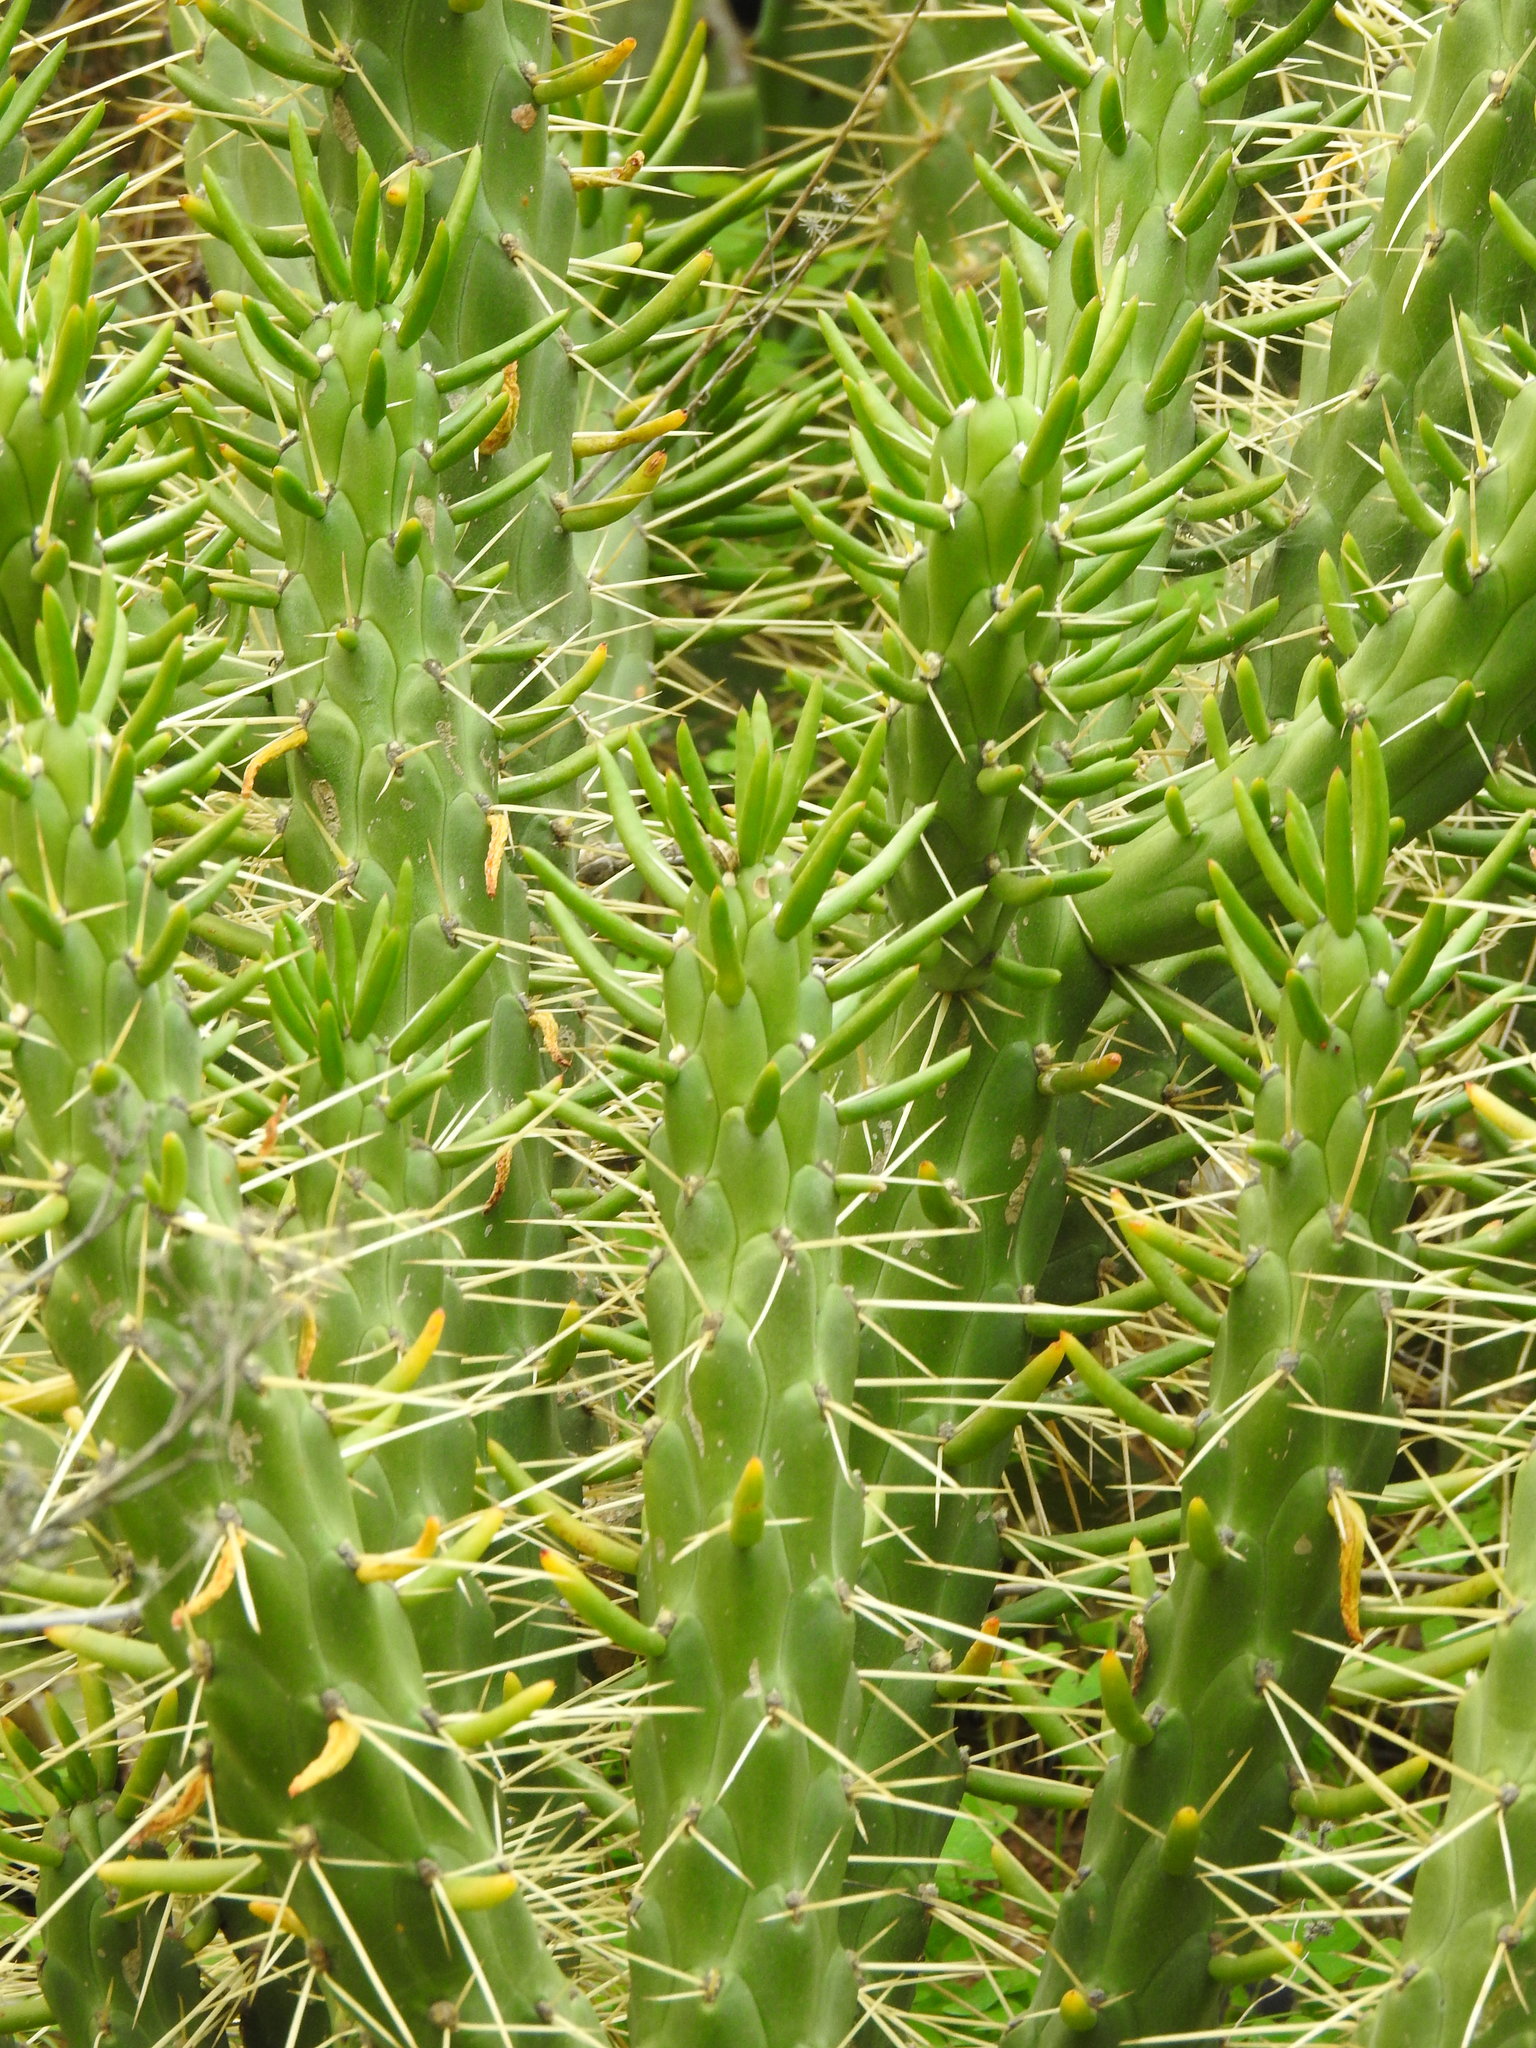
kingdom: Plantae
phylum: Tracheophyta
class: Magnoliopsida
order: Caryophyllales
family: Cactaceae
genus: Austrocylindropuntia
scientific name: Austrocylindropuntia subulata
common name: Eve's needle cactus
